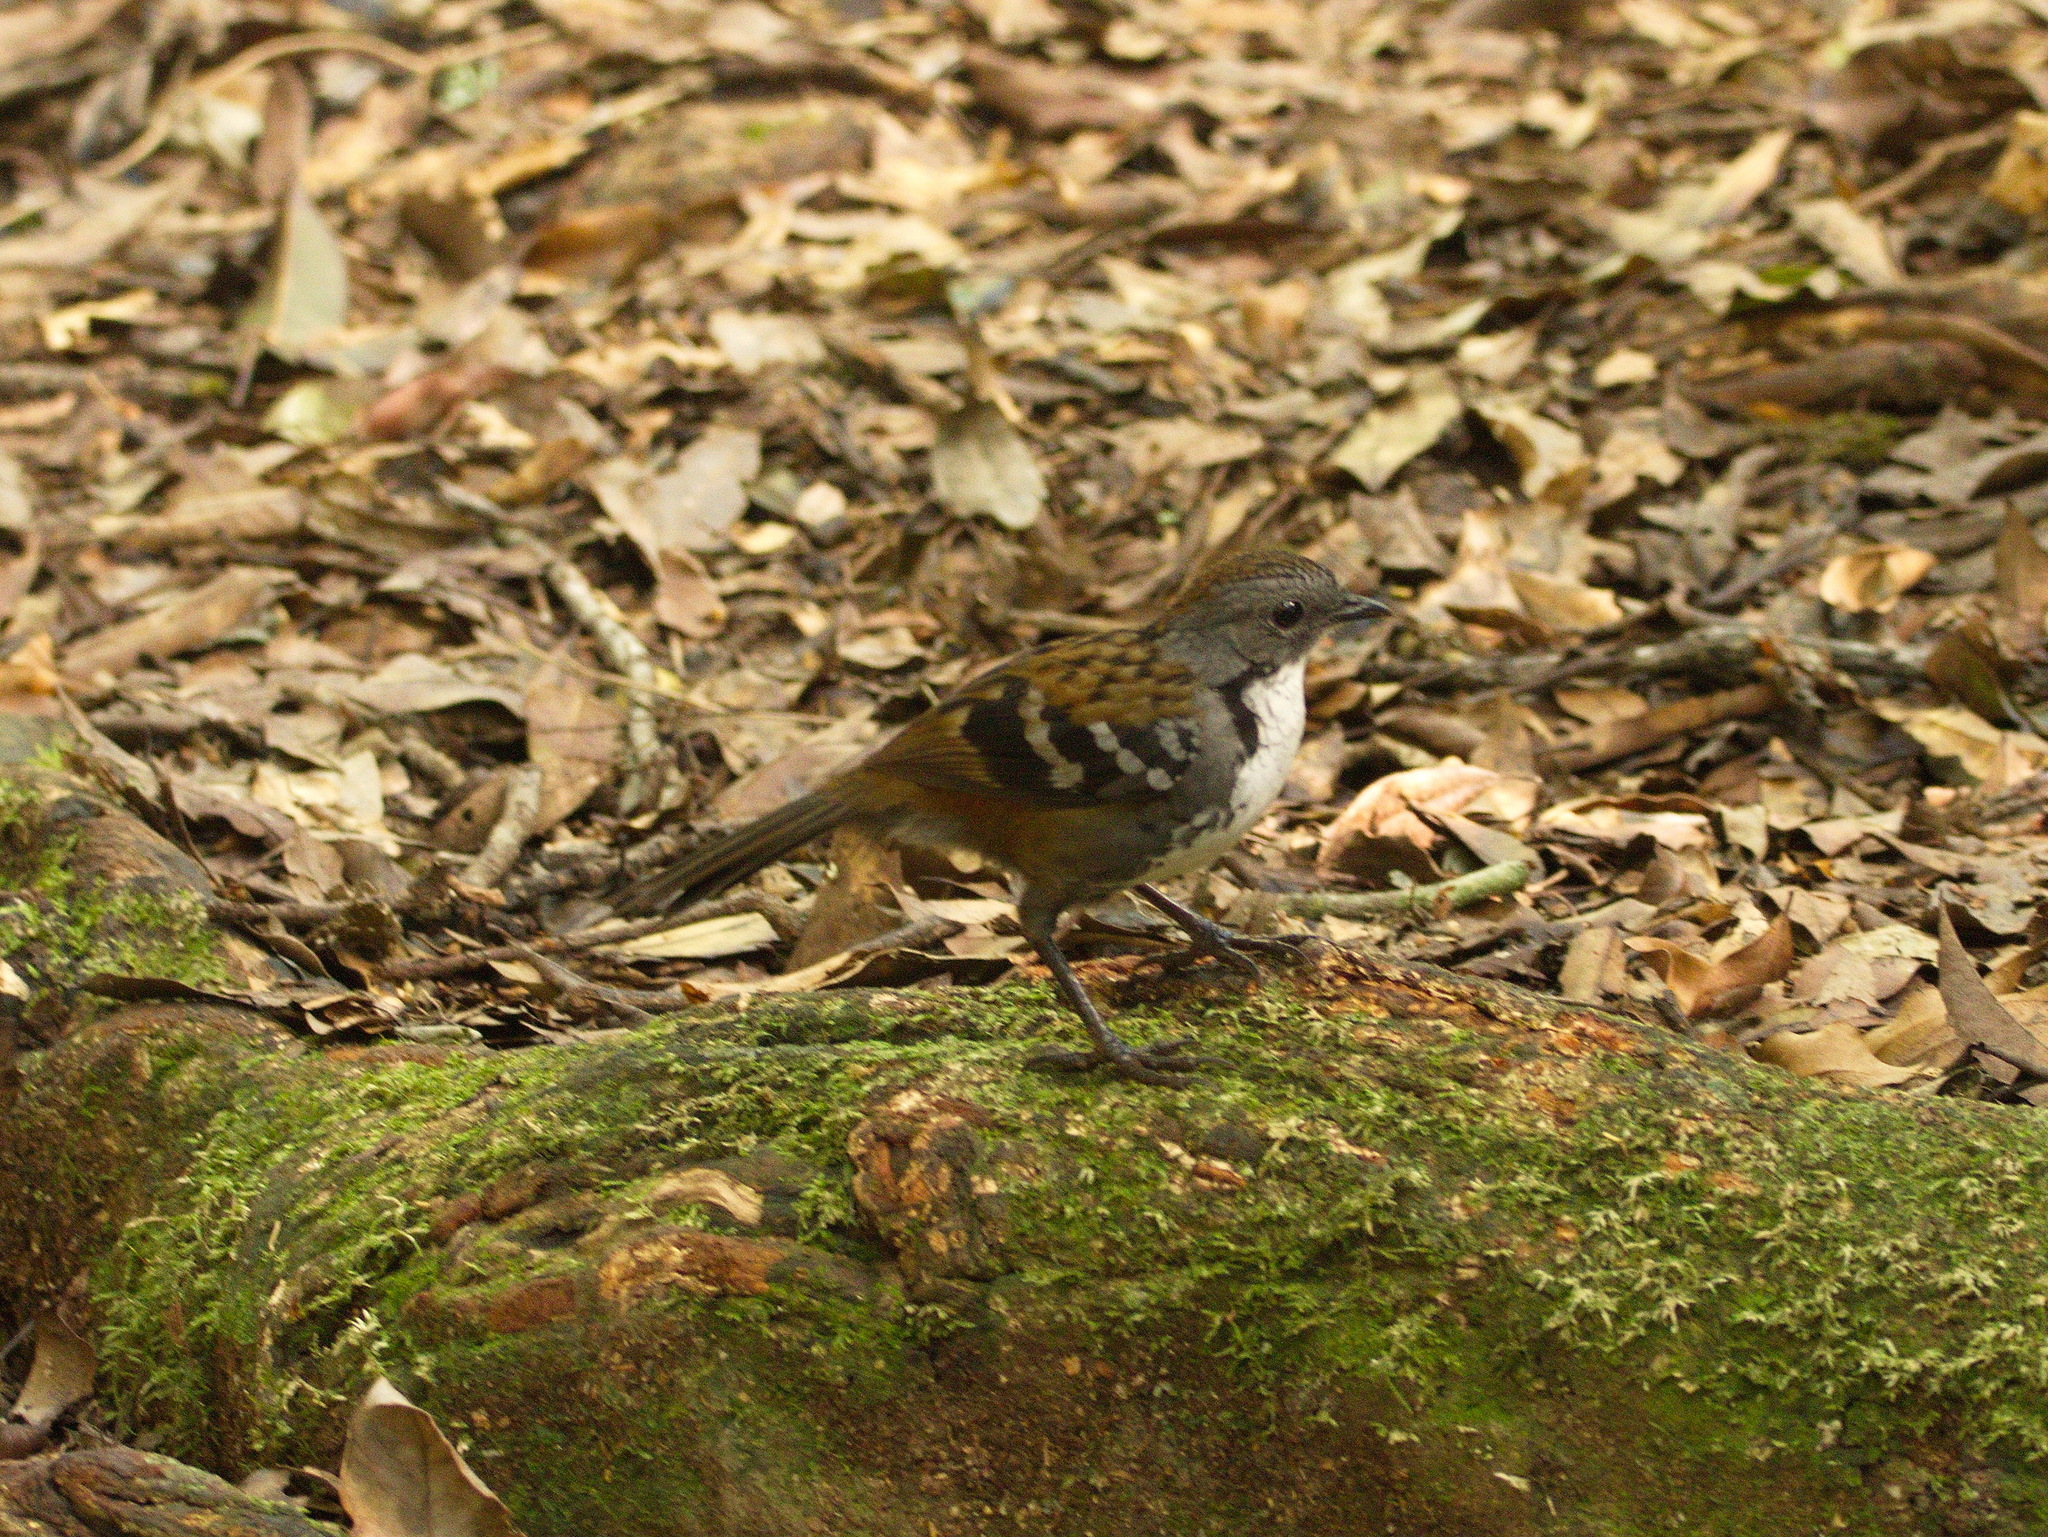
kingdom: Animalia
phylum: Chordata
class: Aves
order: Passeriformes
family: Orthonychidae
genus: Orthonyx
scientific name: Orthonyx temminckii
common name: Australian logrunner
